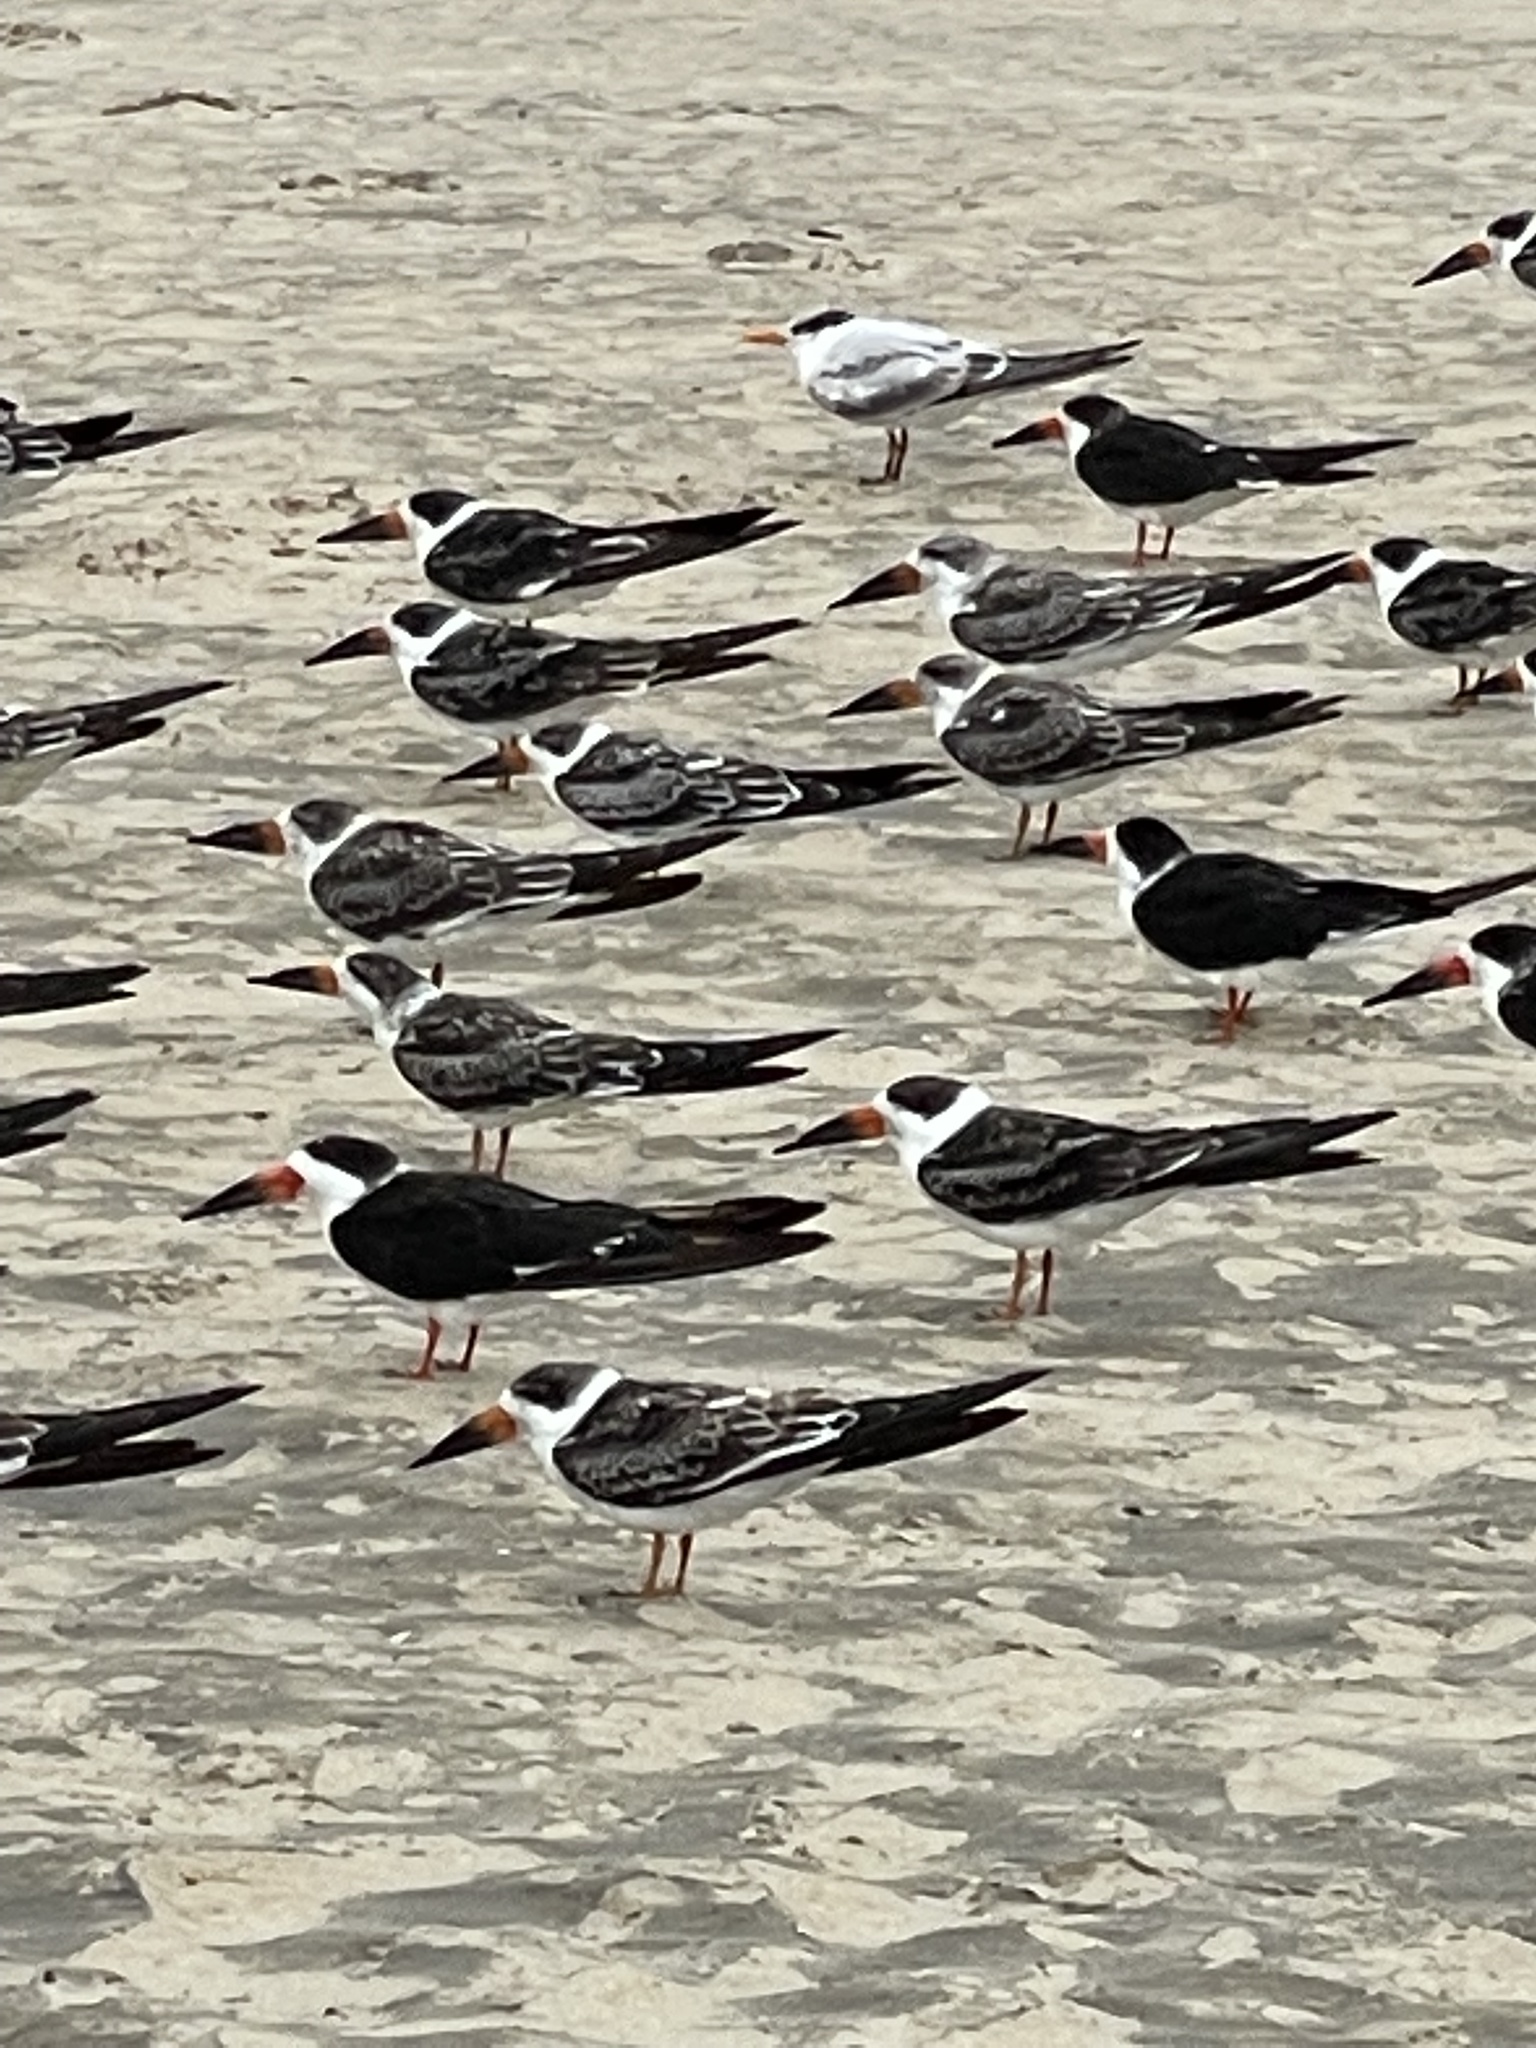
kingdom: Animalia
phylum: Chordata
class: Aves
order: Charadriiformes
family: Laridae
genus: Rynchops
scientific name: Rynchops niger
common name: Black skimmer
